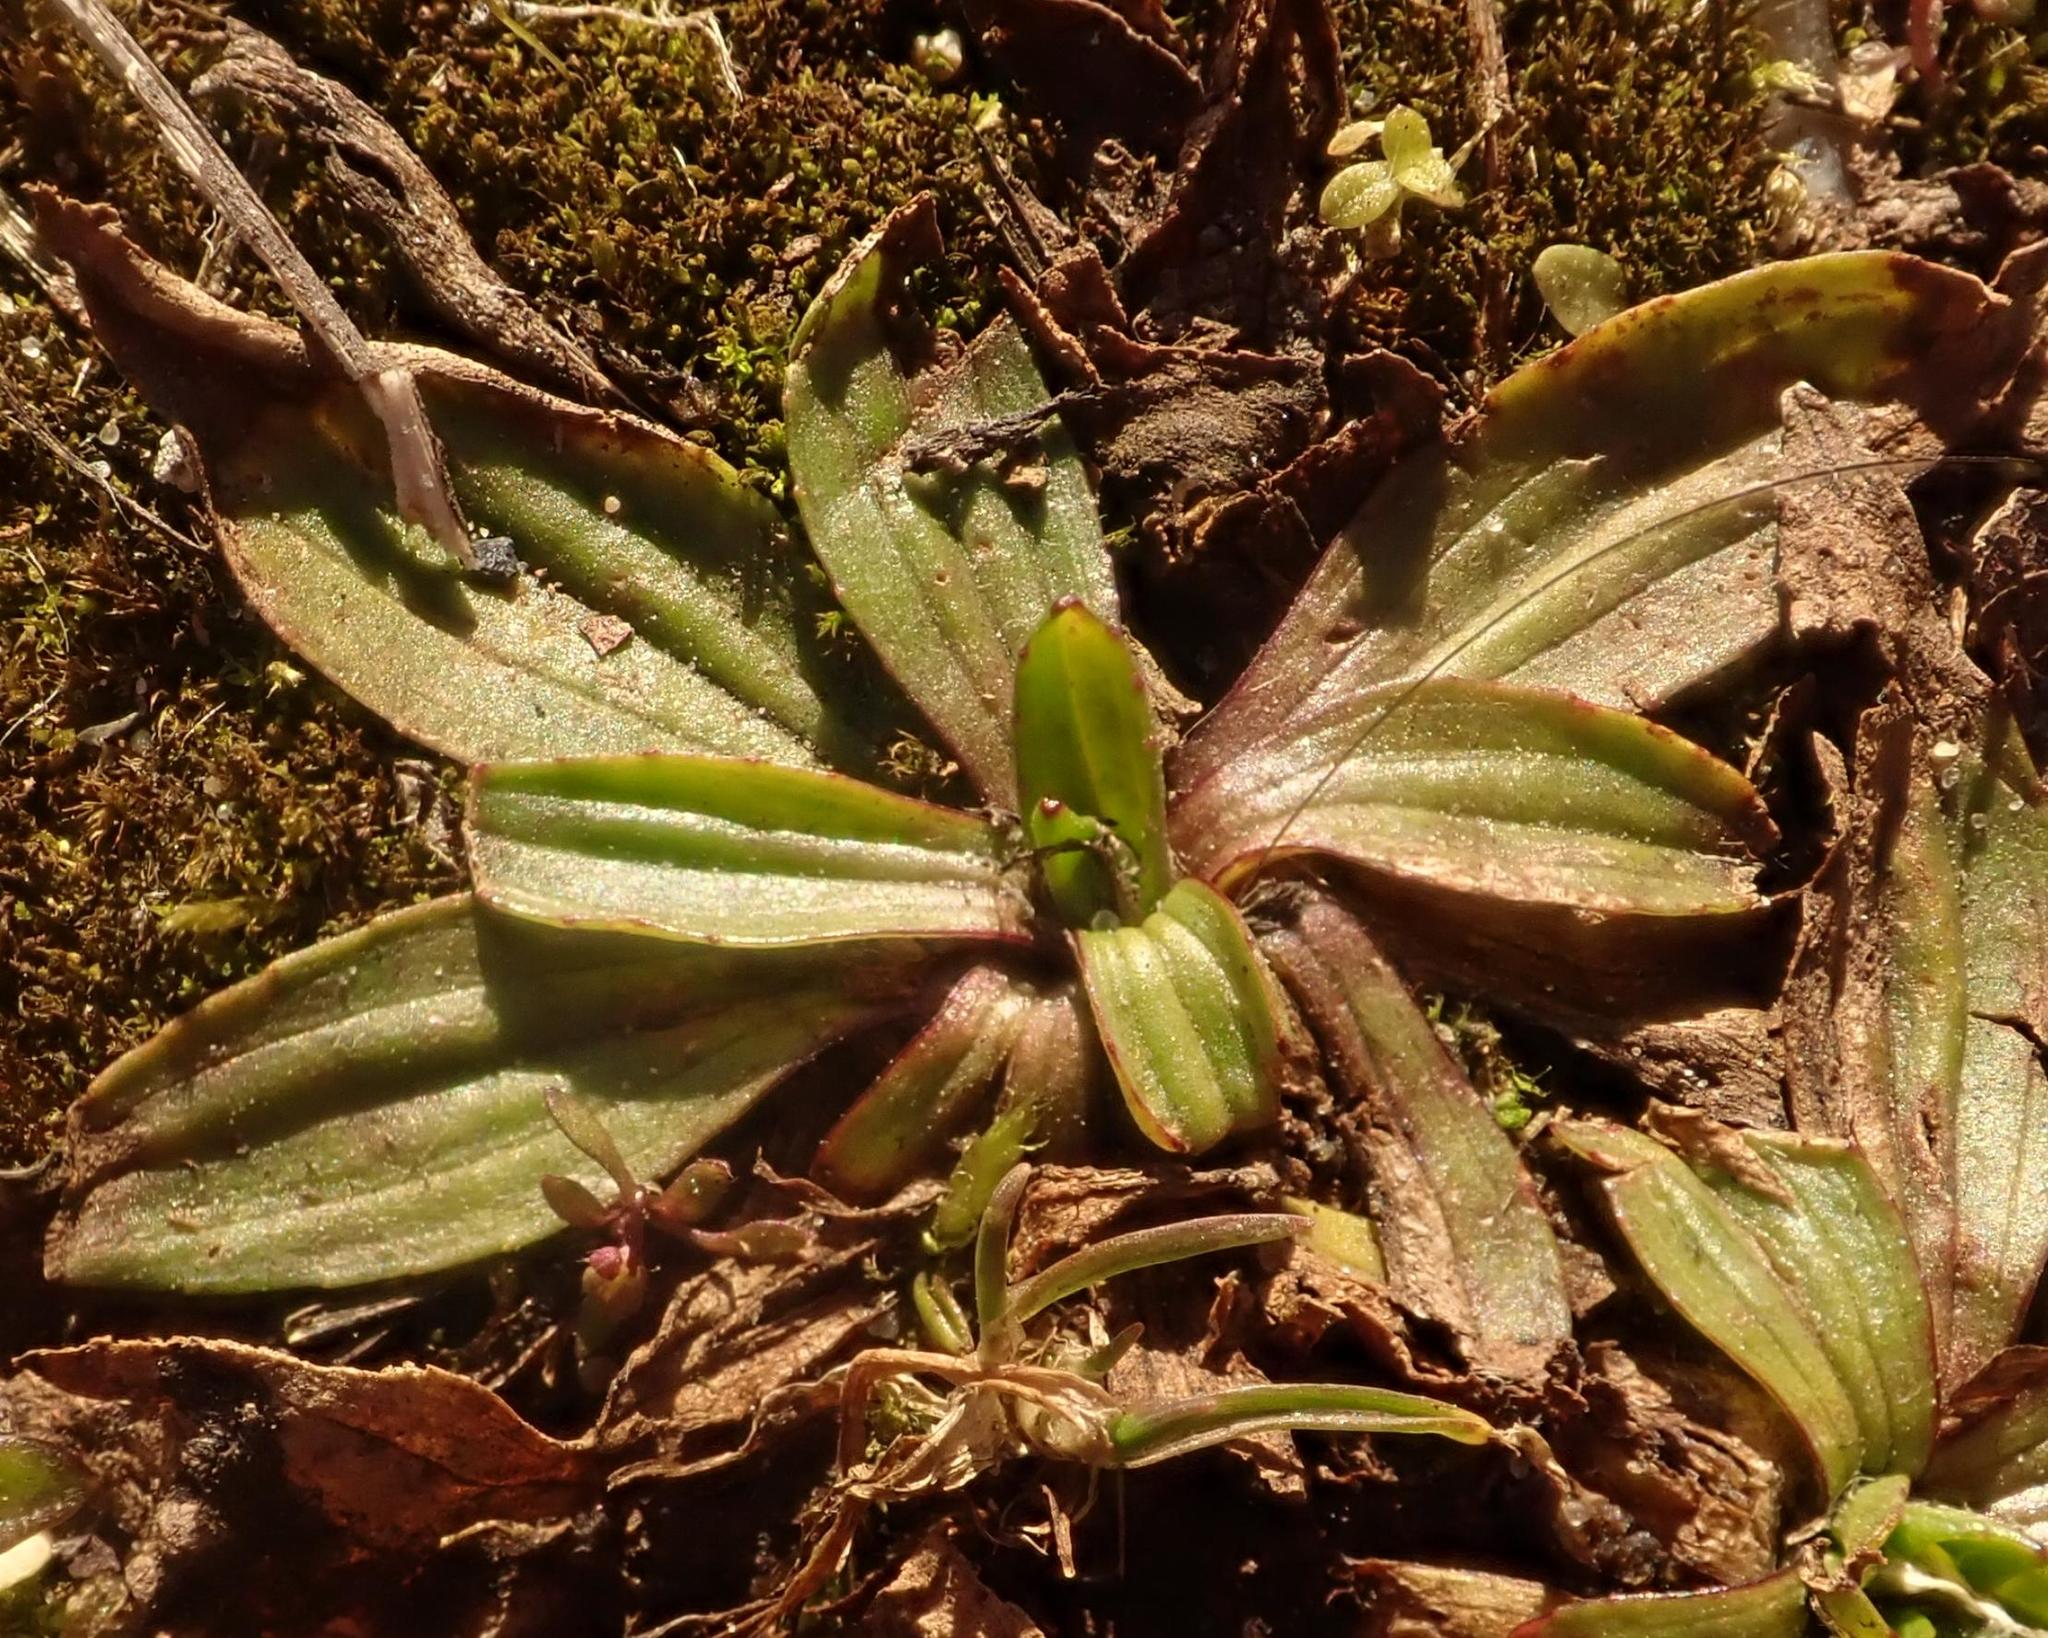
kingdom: Plantae
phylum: Tracheophyta
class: Magnoliopsida
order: Lamiales
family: Plantaginaceae
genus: Plantago
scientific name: Plantago lanceolata
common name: Ribwort plantain
